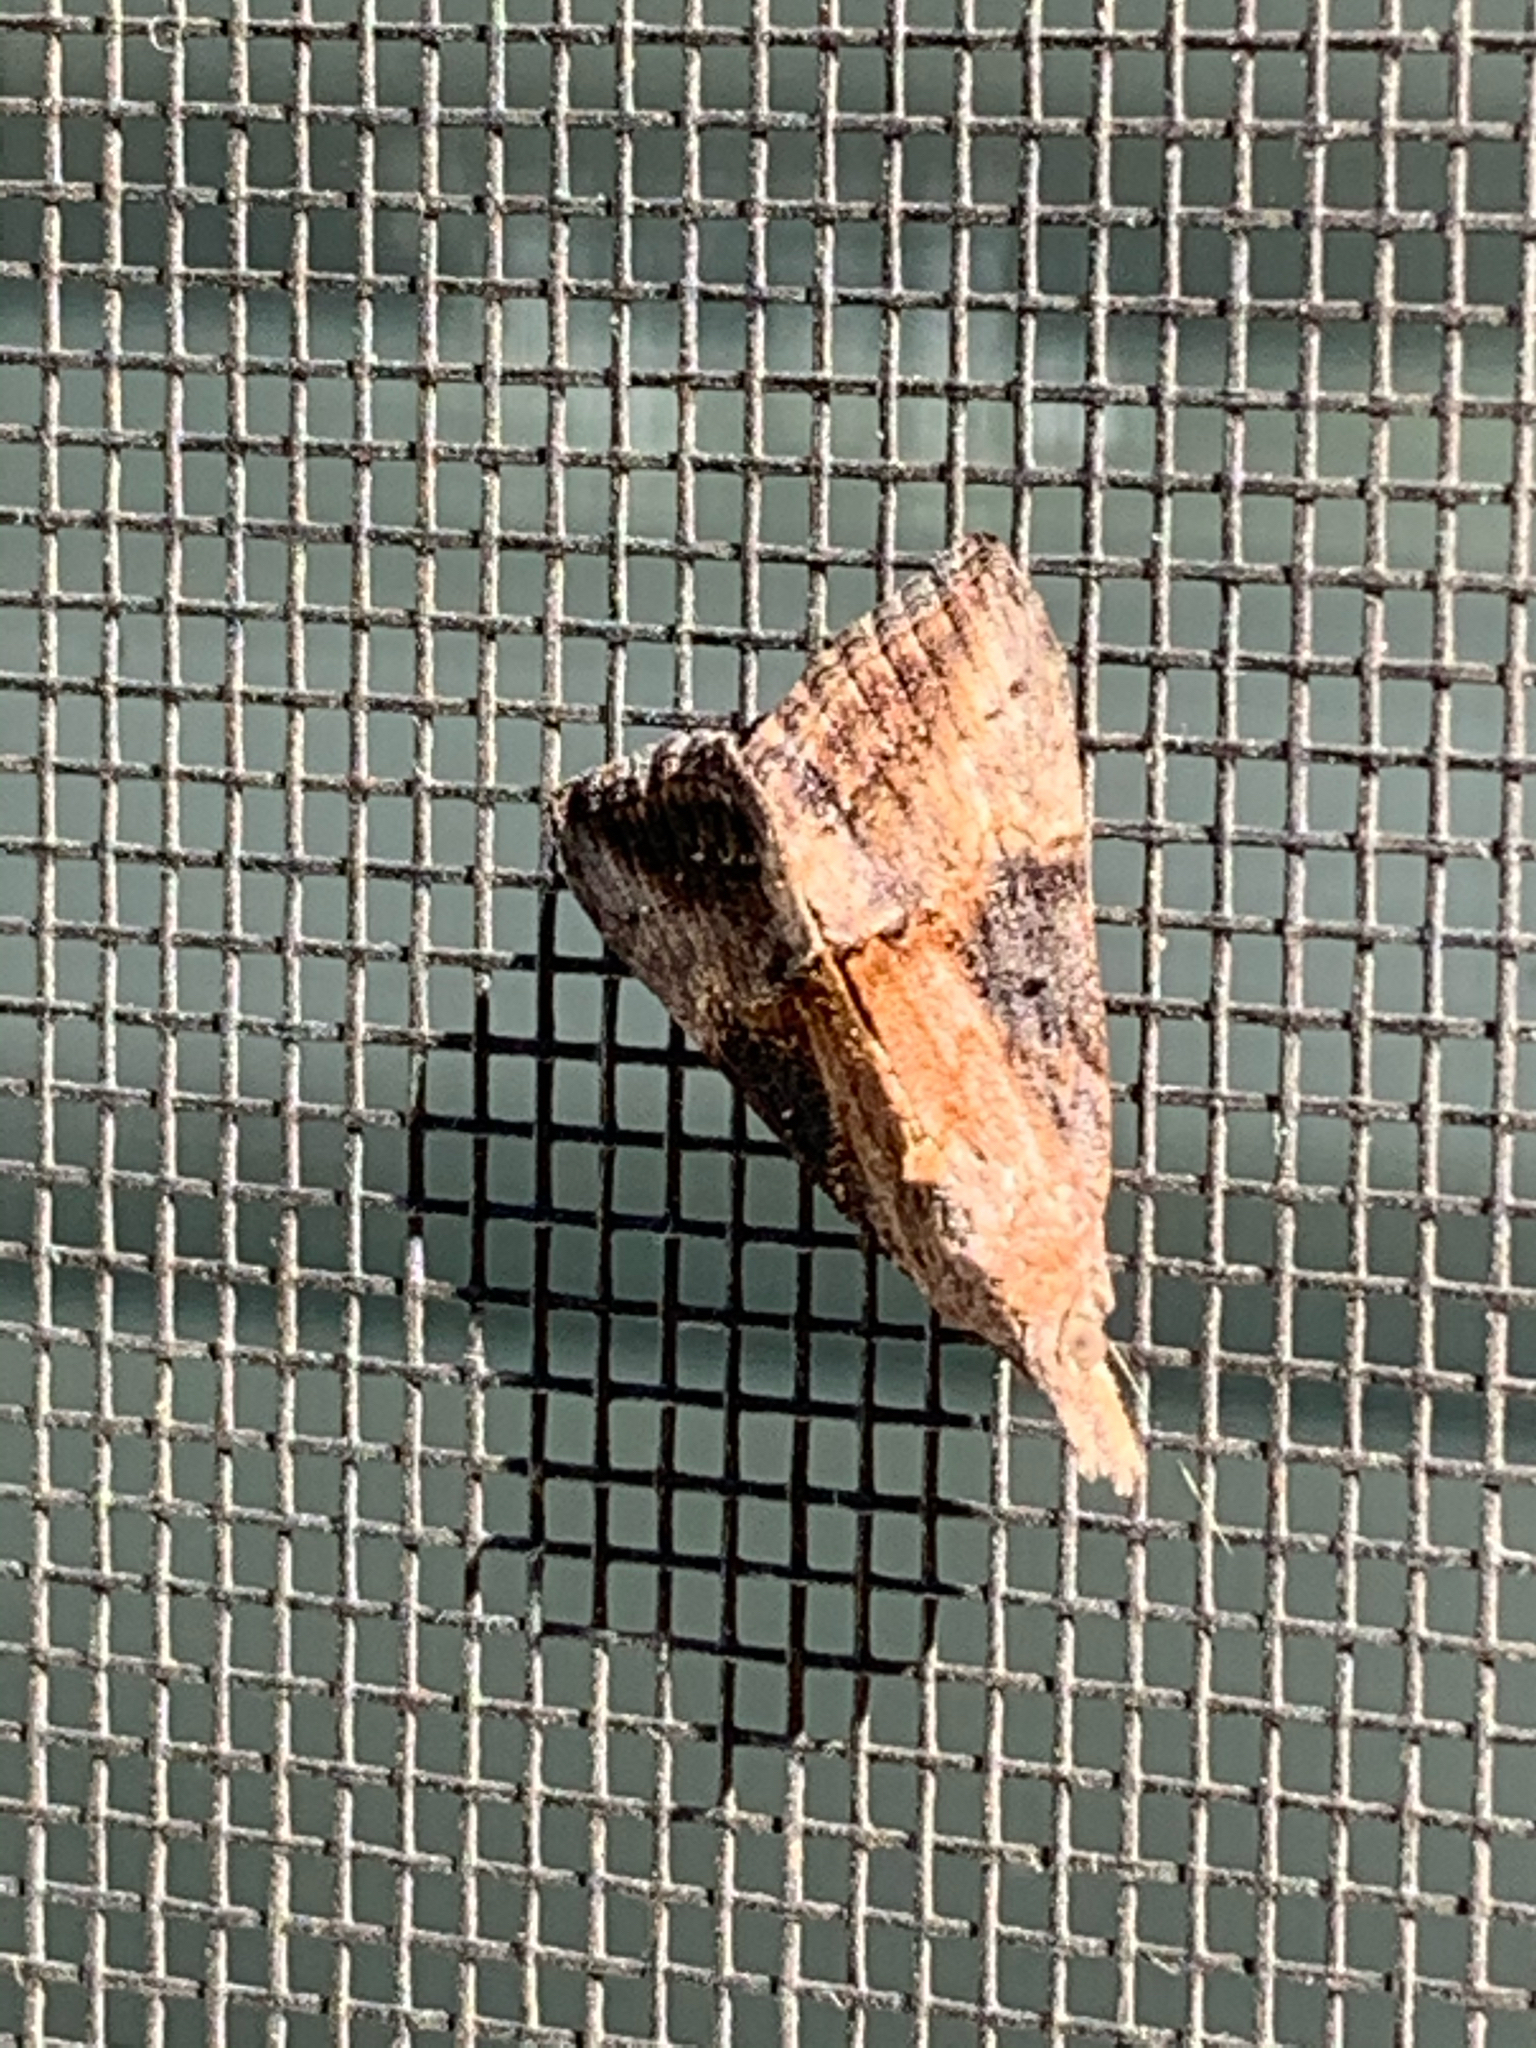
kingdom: Animalia
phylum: Arthropoda
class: Insecta
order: Lepidoptera
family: Erebidae
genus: Hypena
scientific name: Hypena scabra
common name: Green cloverworm
